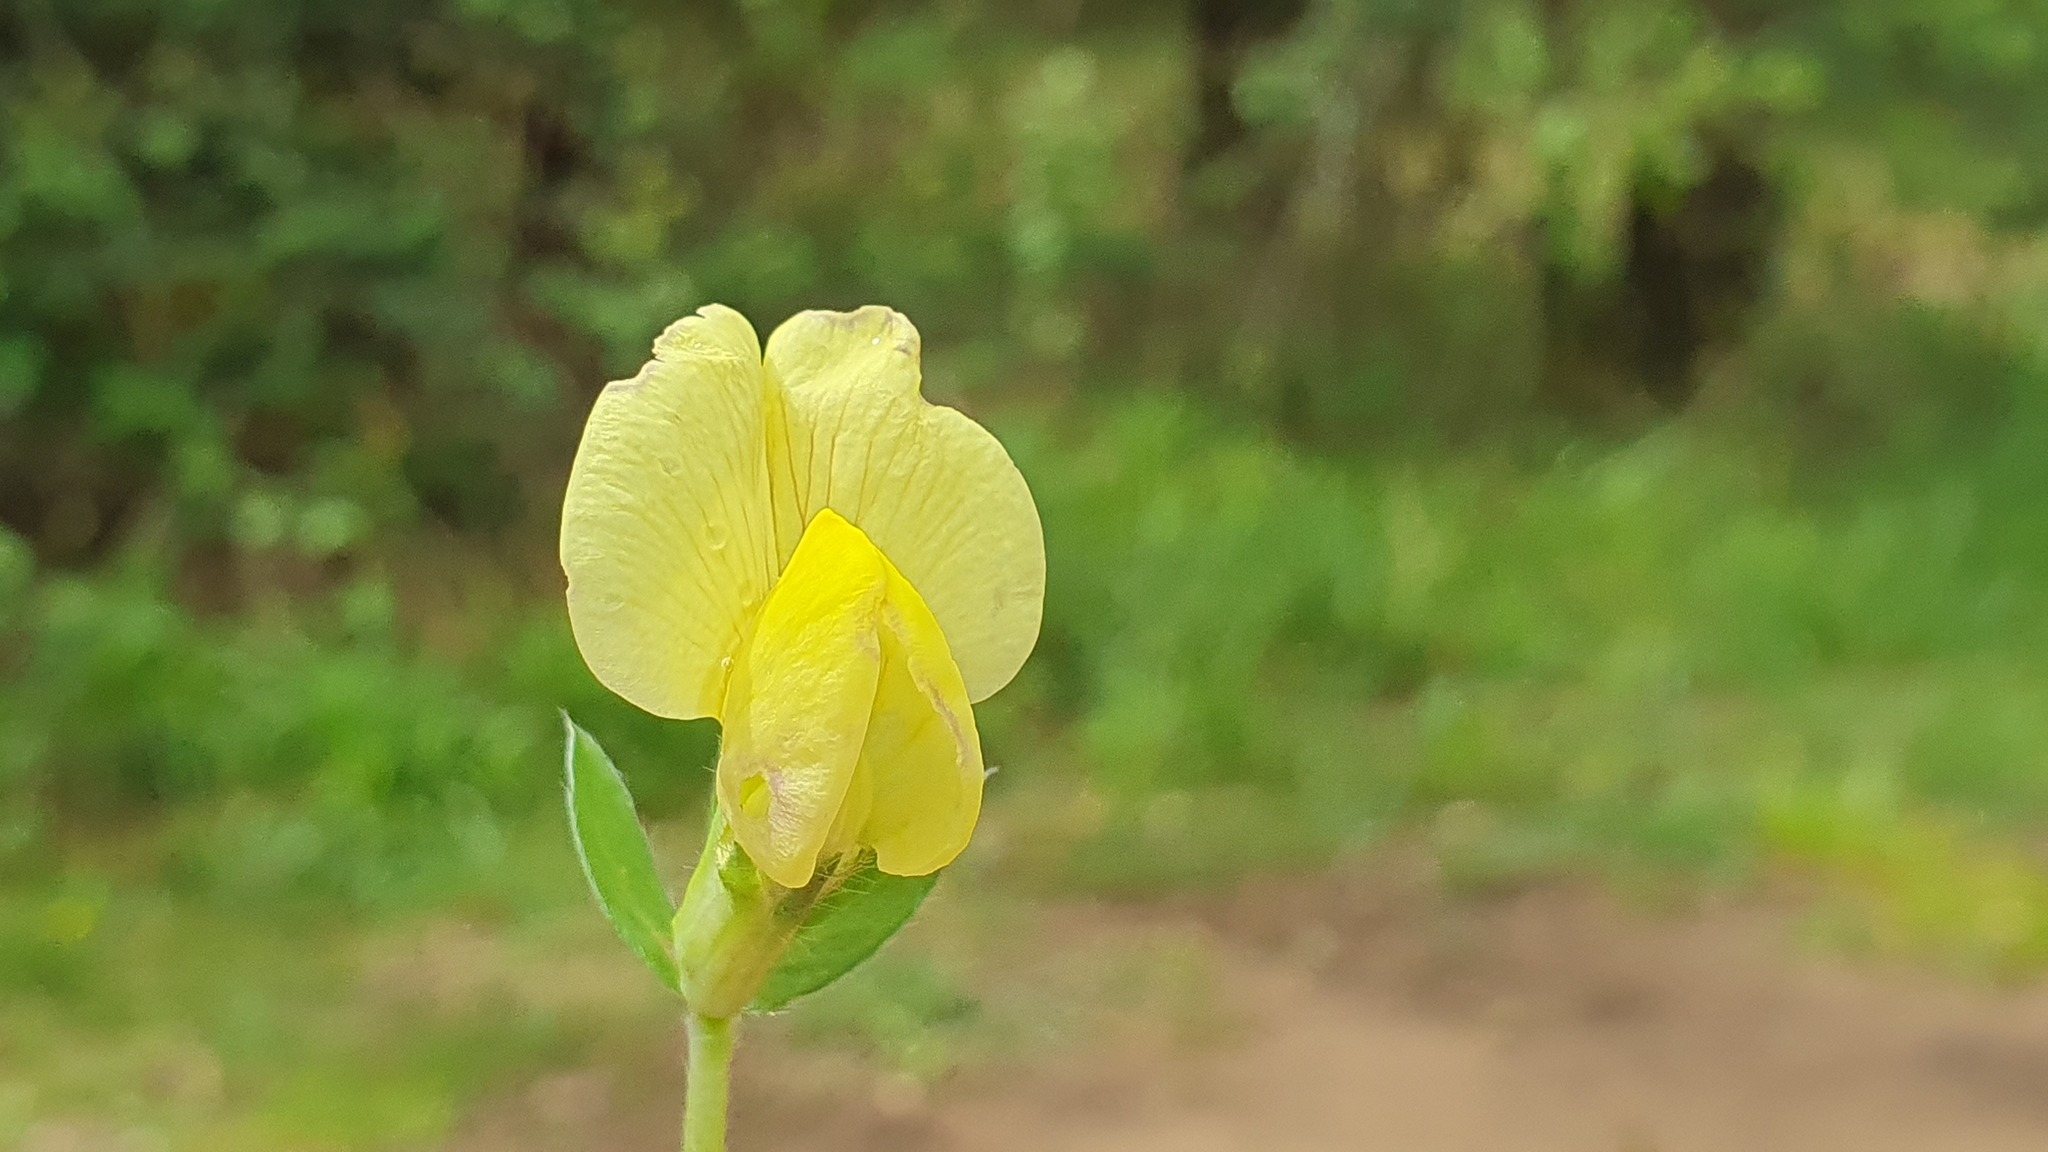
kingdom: Plantae
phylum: Tracheophyta
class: Magnoliopsida
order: Fabales
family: Fabaceae
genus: Lotus
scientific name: Lotus maritimus
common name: Dragon's-teeth
